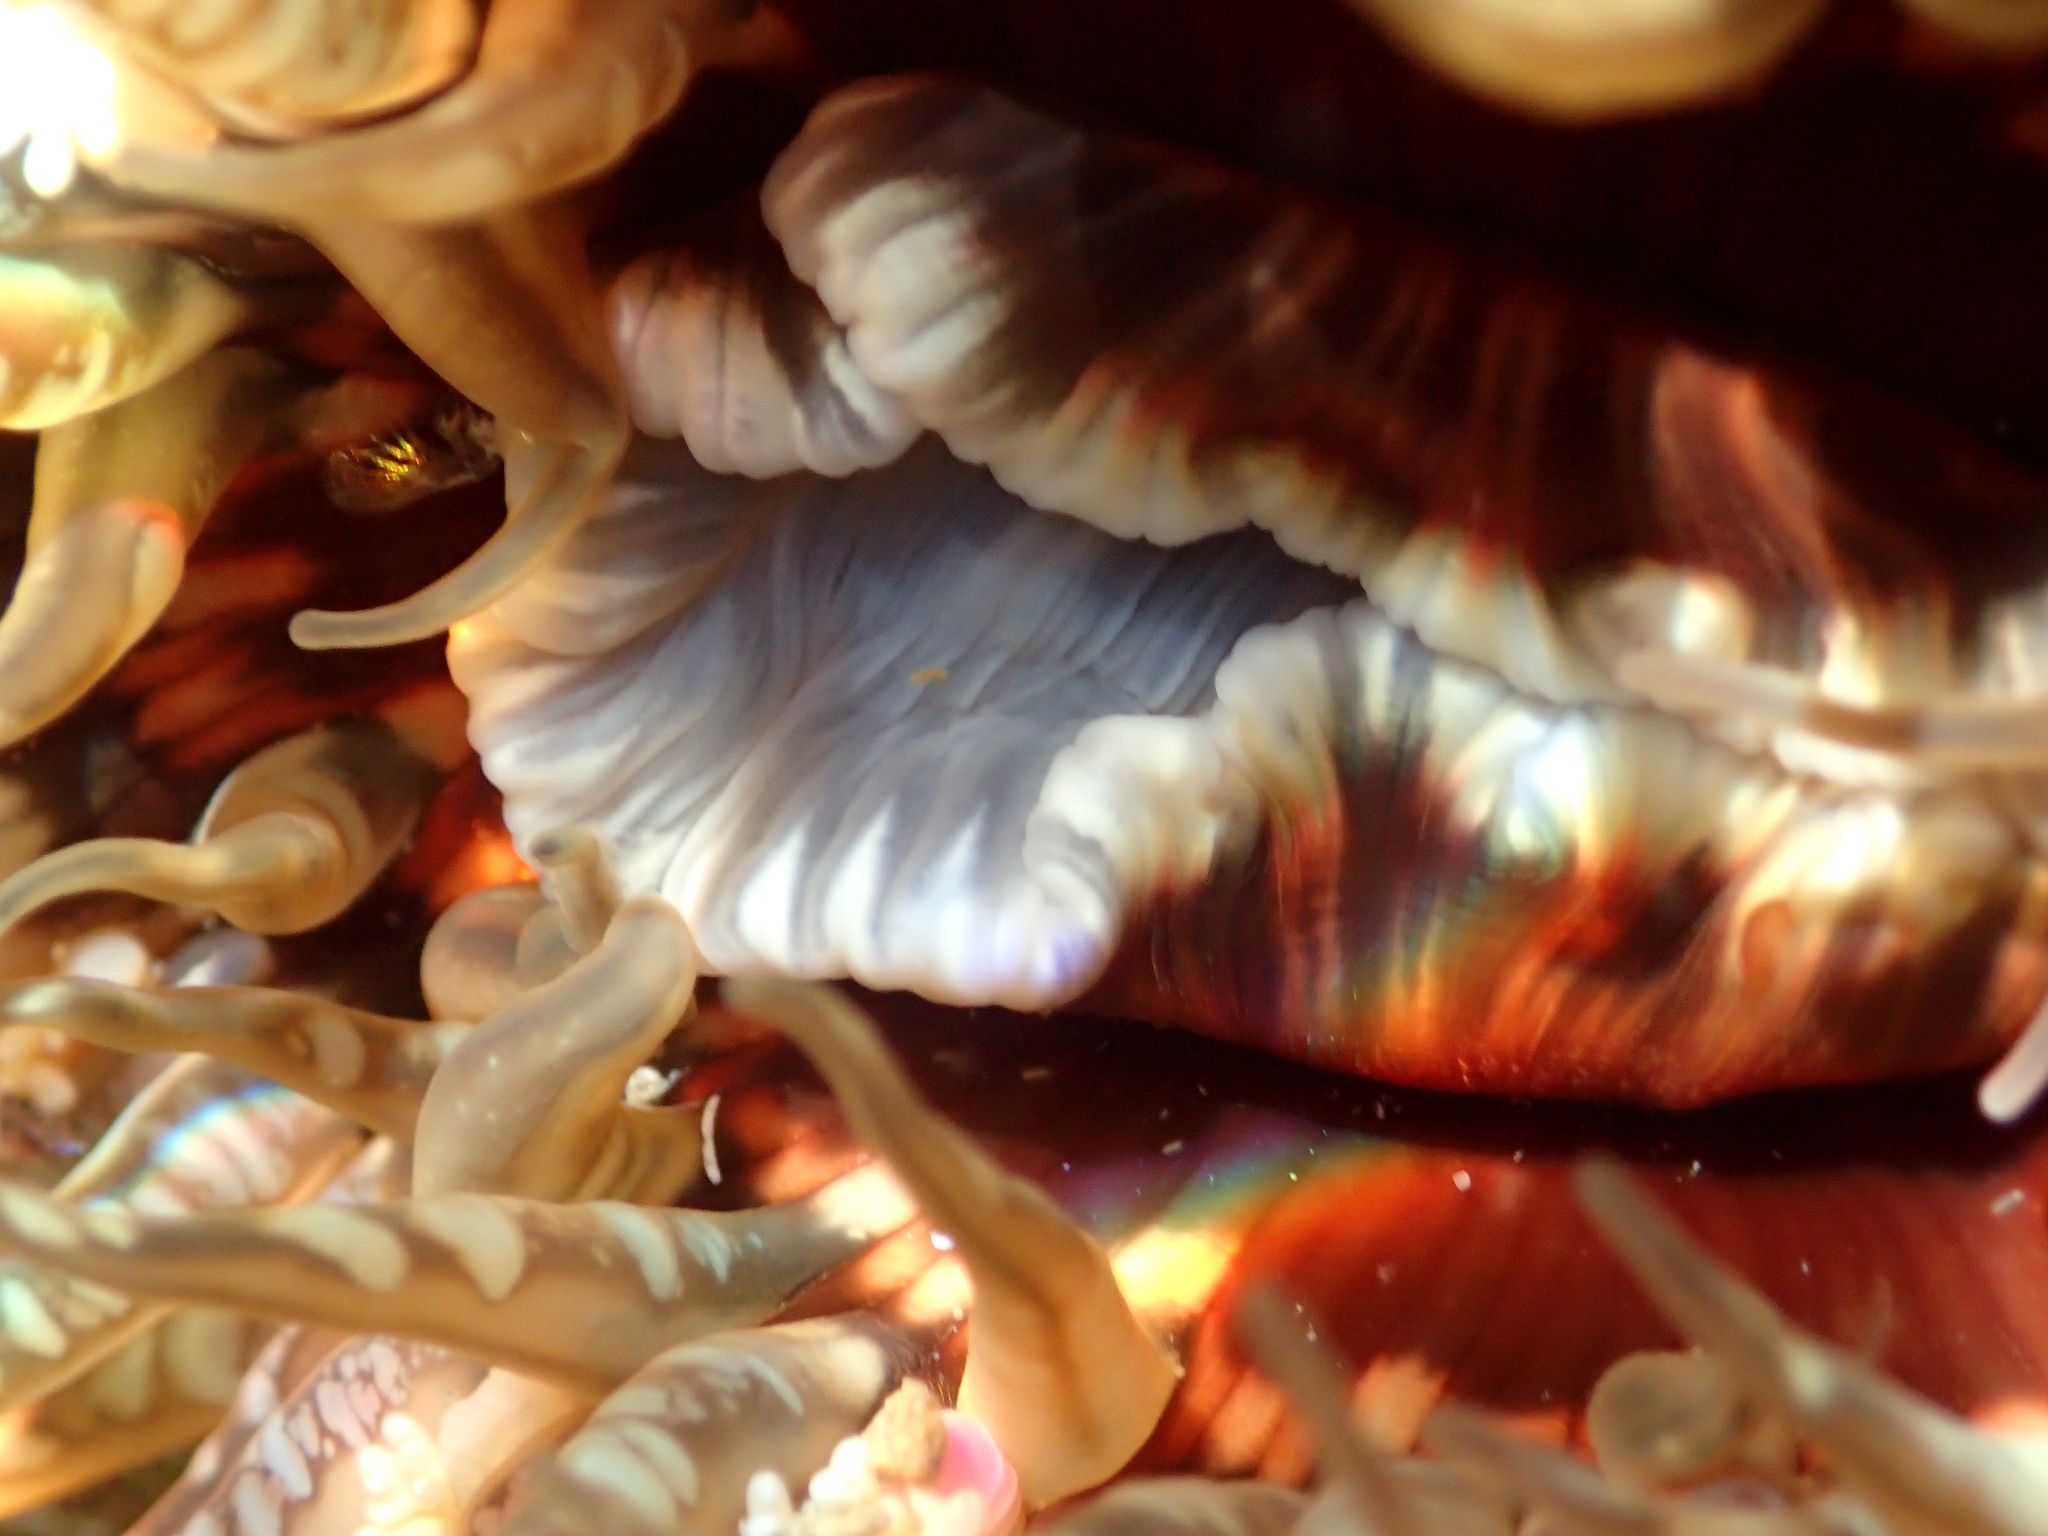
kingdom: Animalia
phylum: Cnidaria
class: Anthozoa
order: Actiniaria
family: Actiniidae
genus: Oulactis
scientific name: Oulactis muscosa
